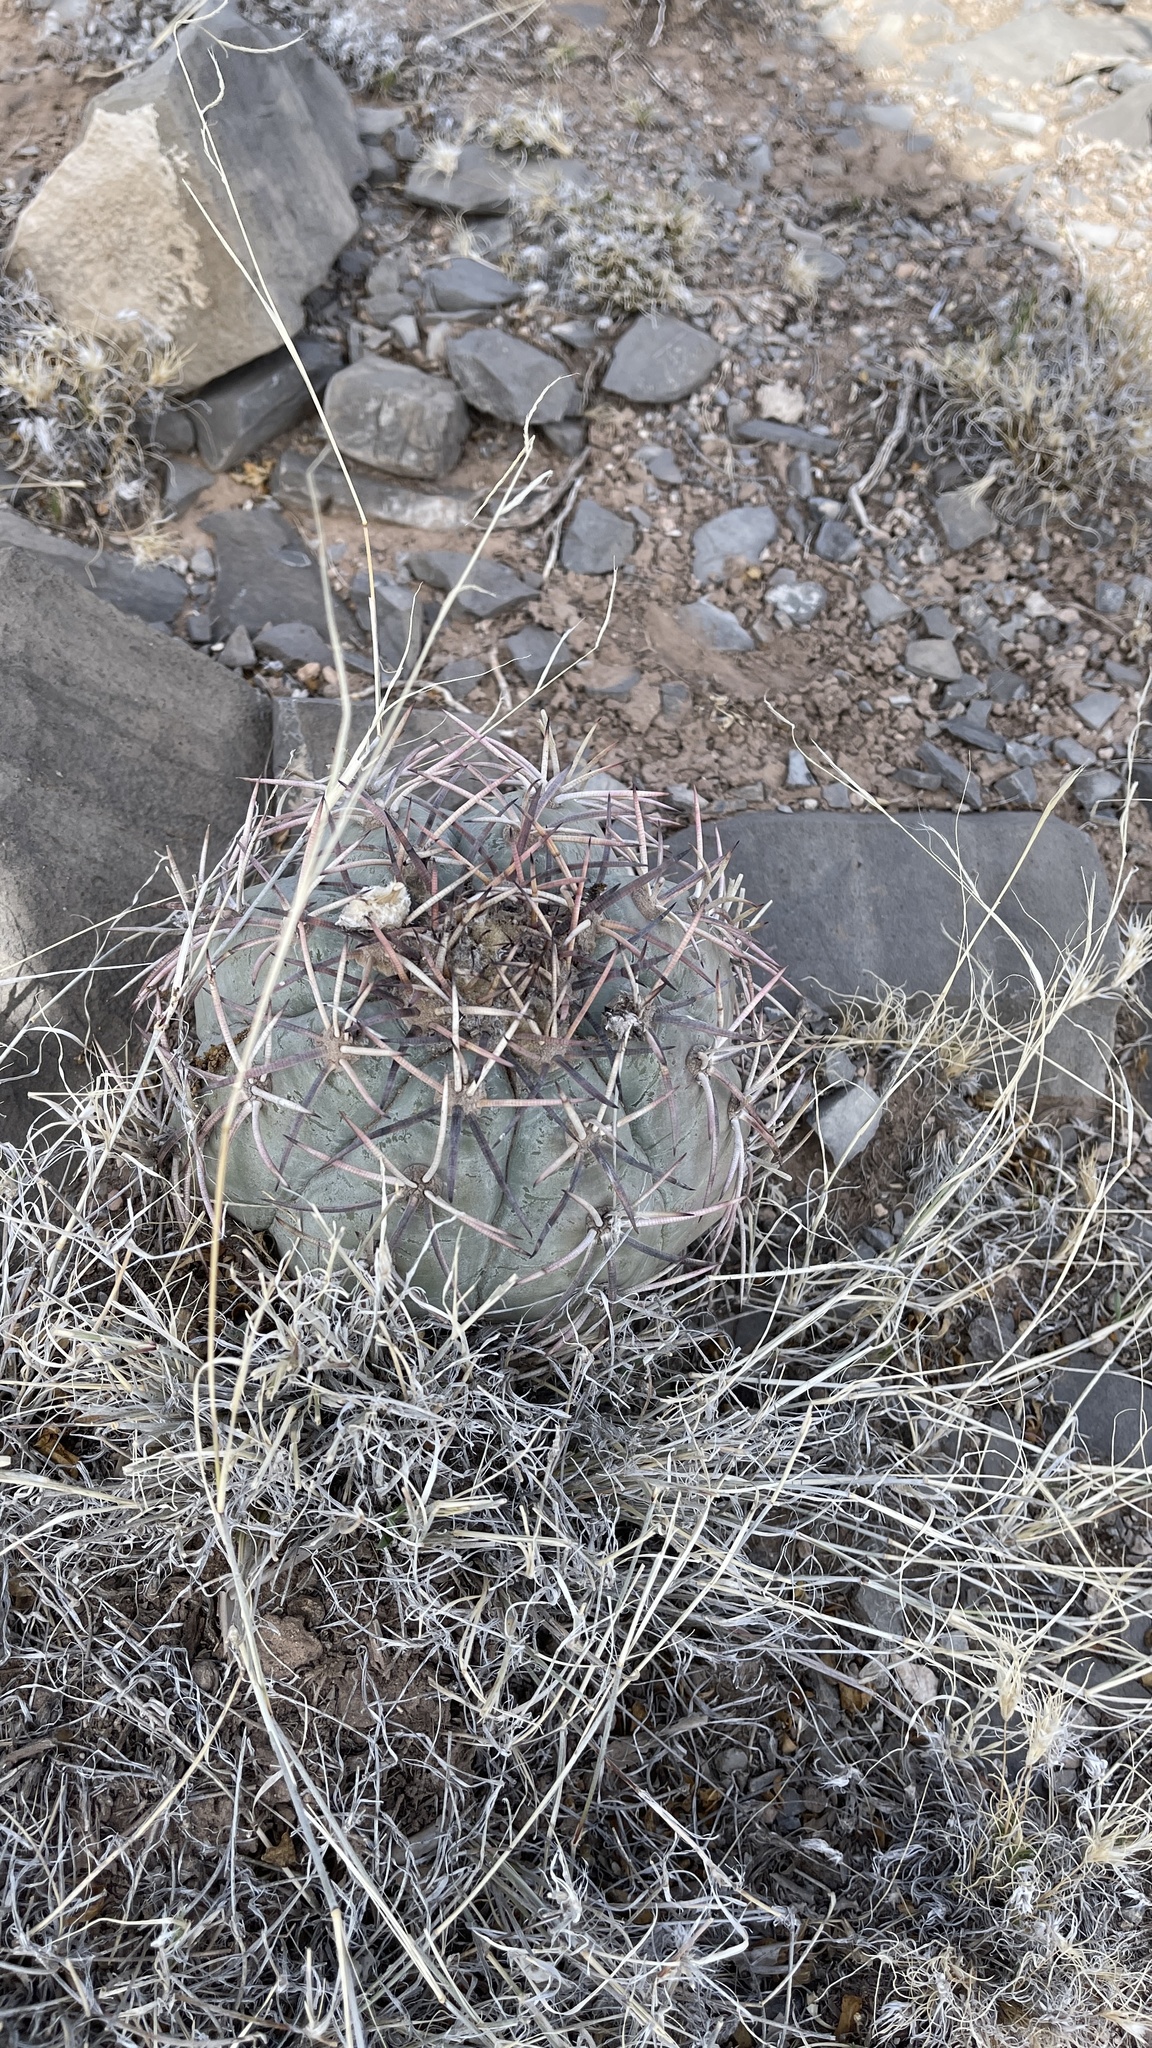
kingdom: Plantae
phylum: Tracheophyta
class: Magnoliopsida
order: Caryophyllales
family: Cactaceae
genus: Echinocactus
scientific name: Echinocactus horizonthalonius
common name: Devilshead
